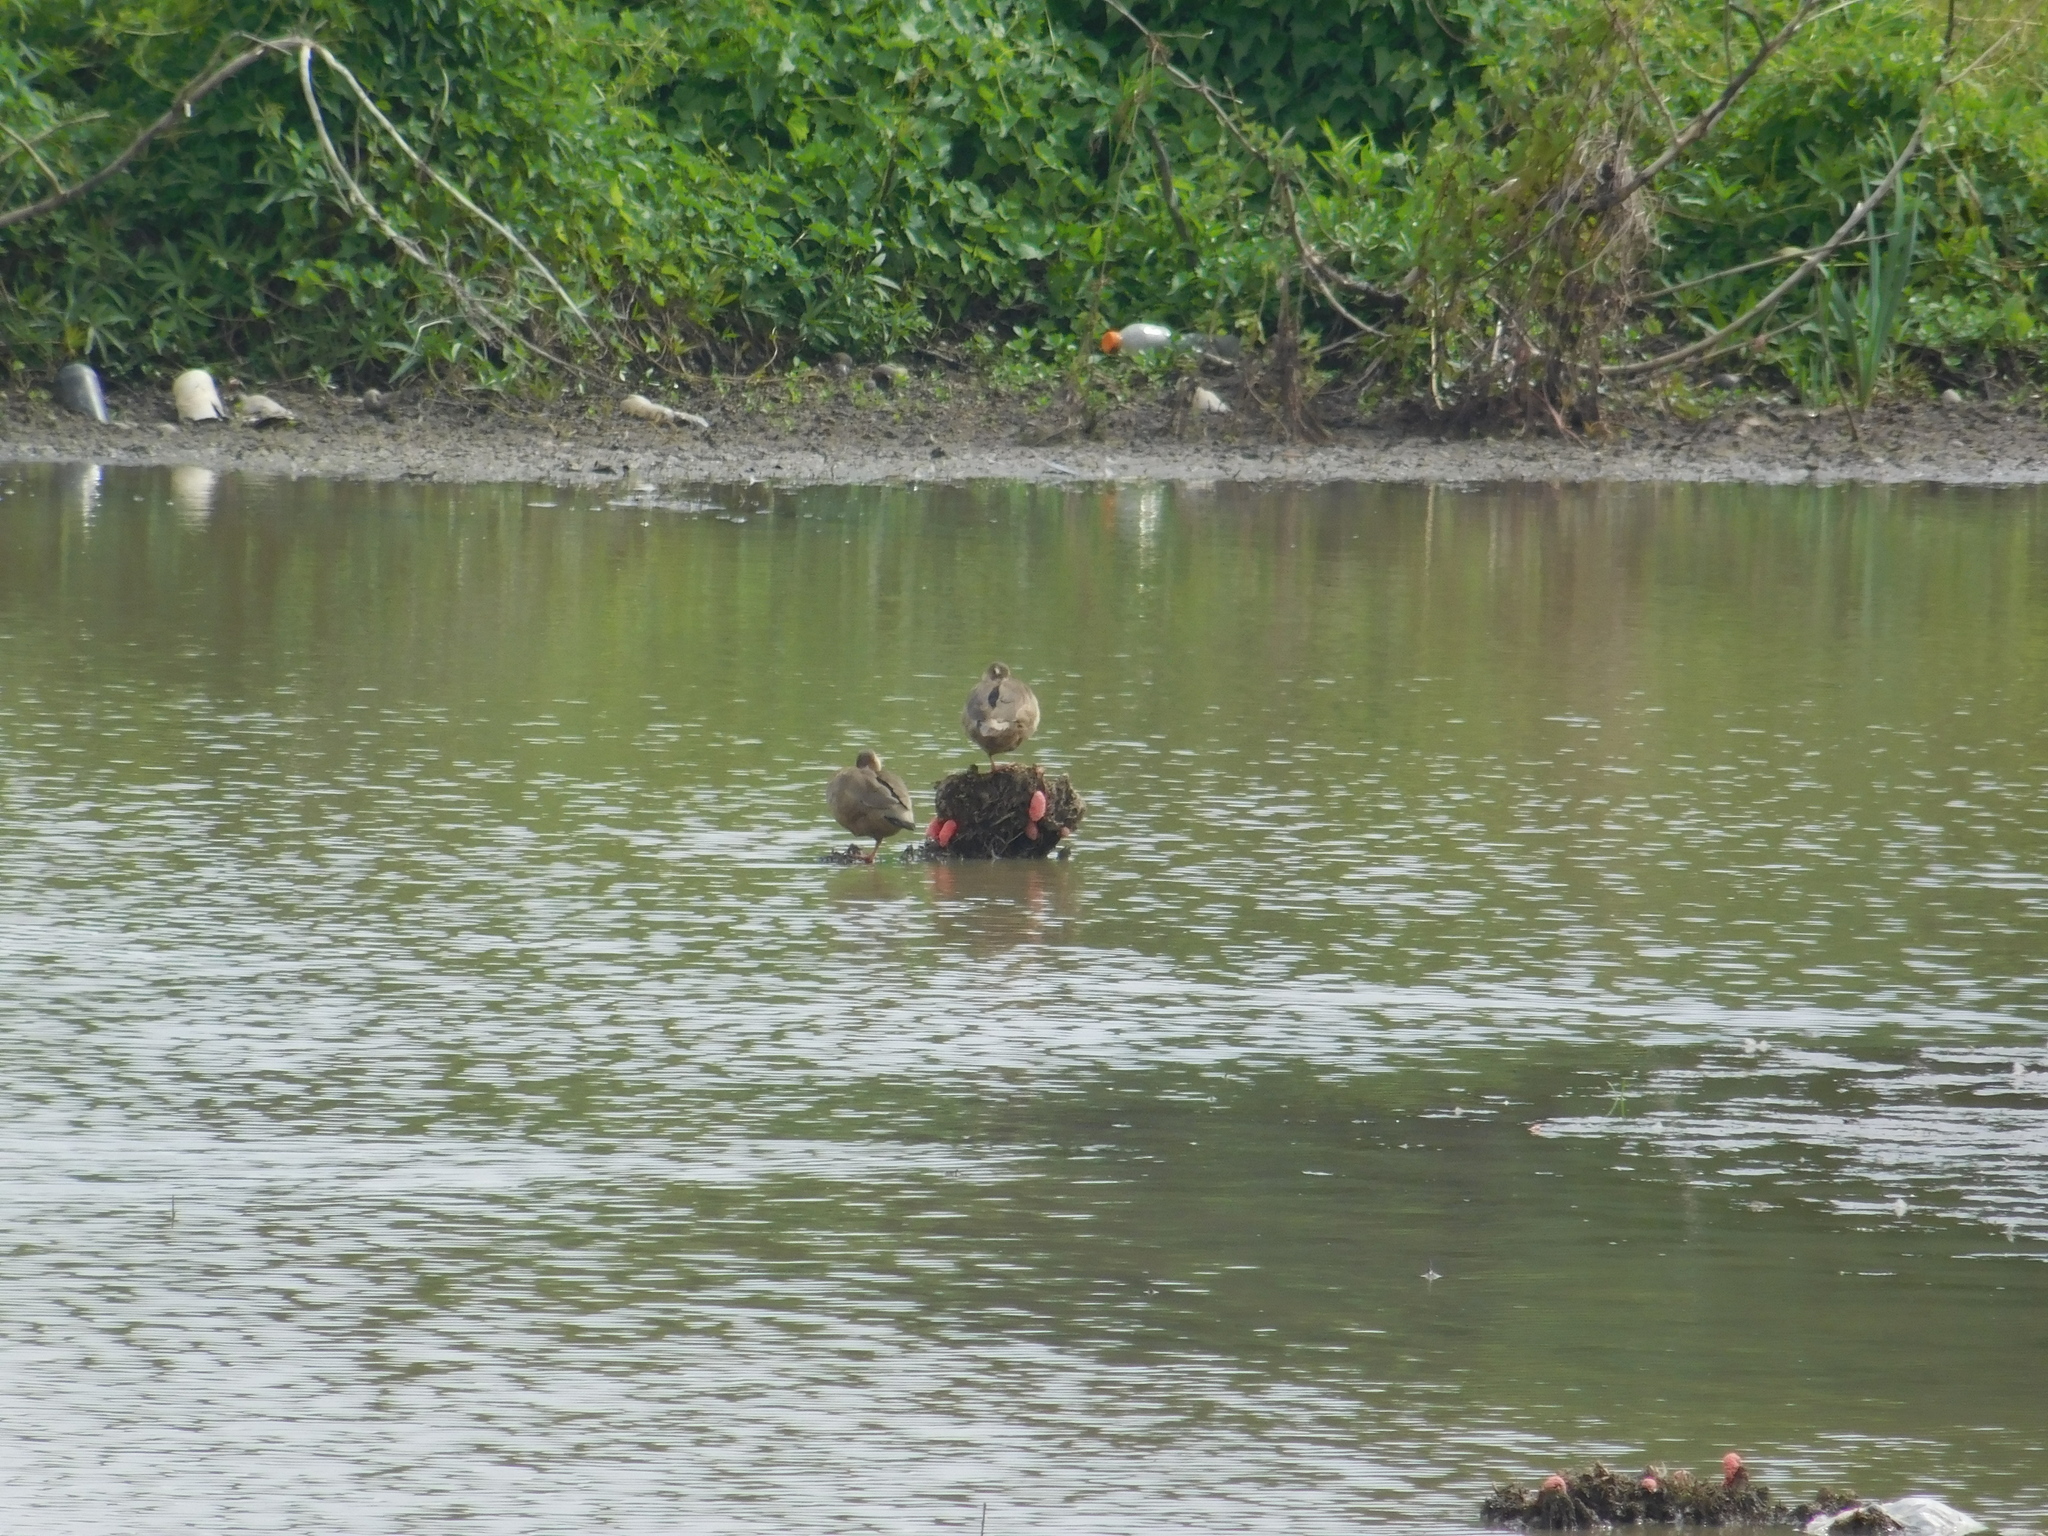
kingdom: Animalia
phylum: Chordata
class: Aves
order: Anseriformes
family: Anatidae
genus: Amazonetta
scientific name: Amazonetta brasiliensis
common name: Brazilian teal
